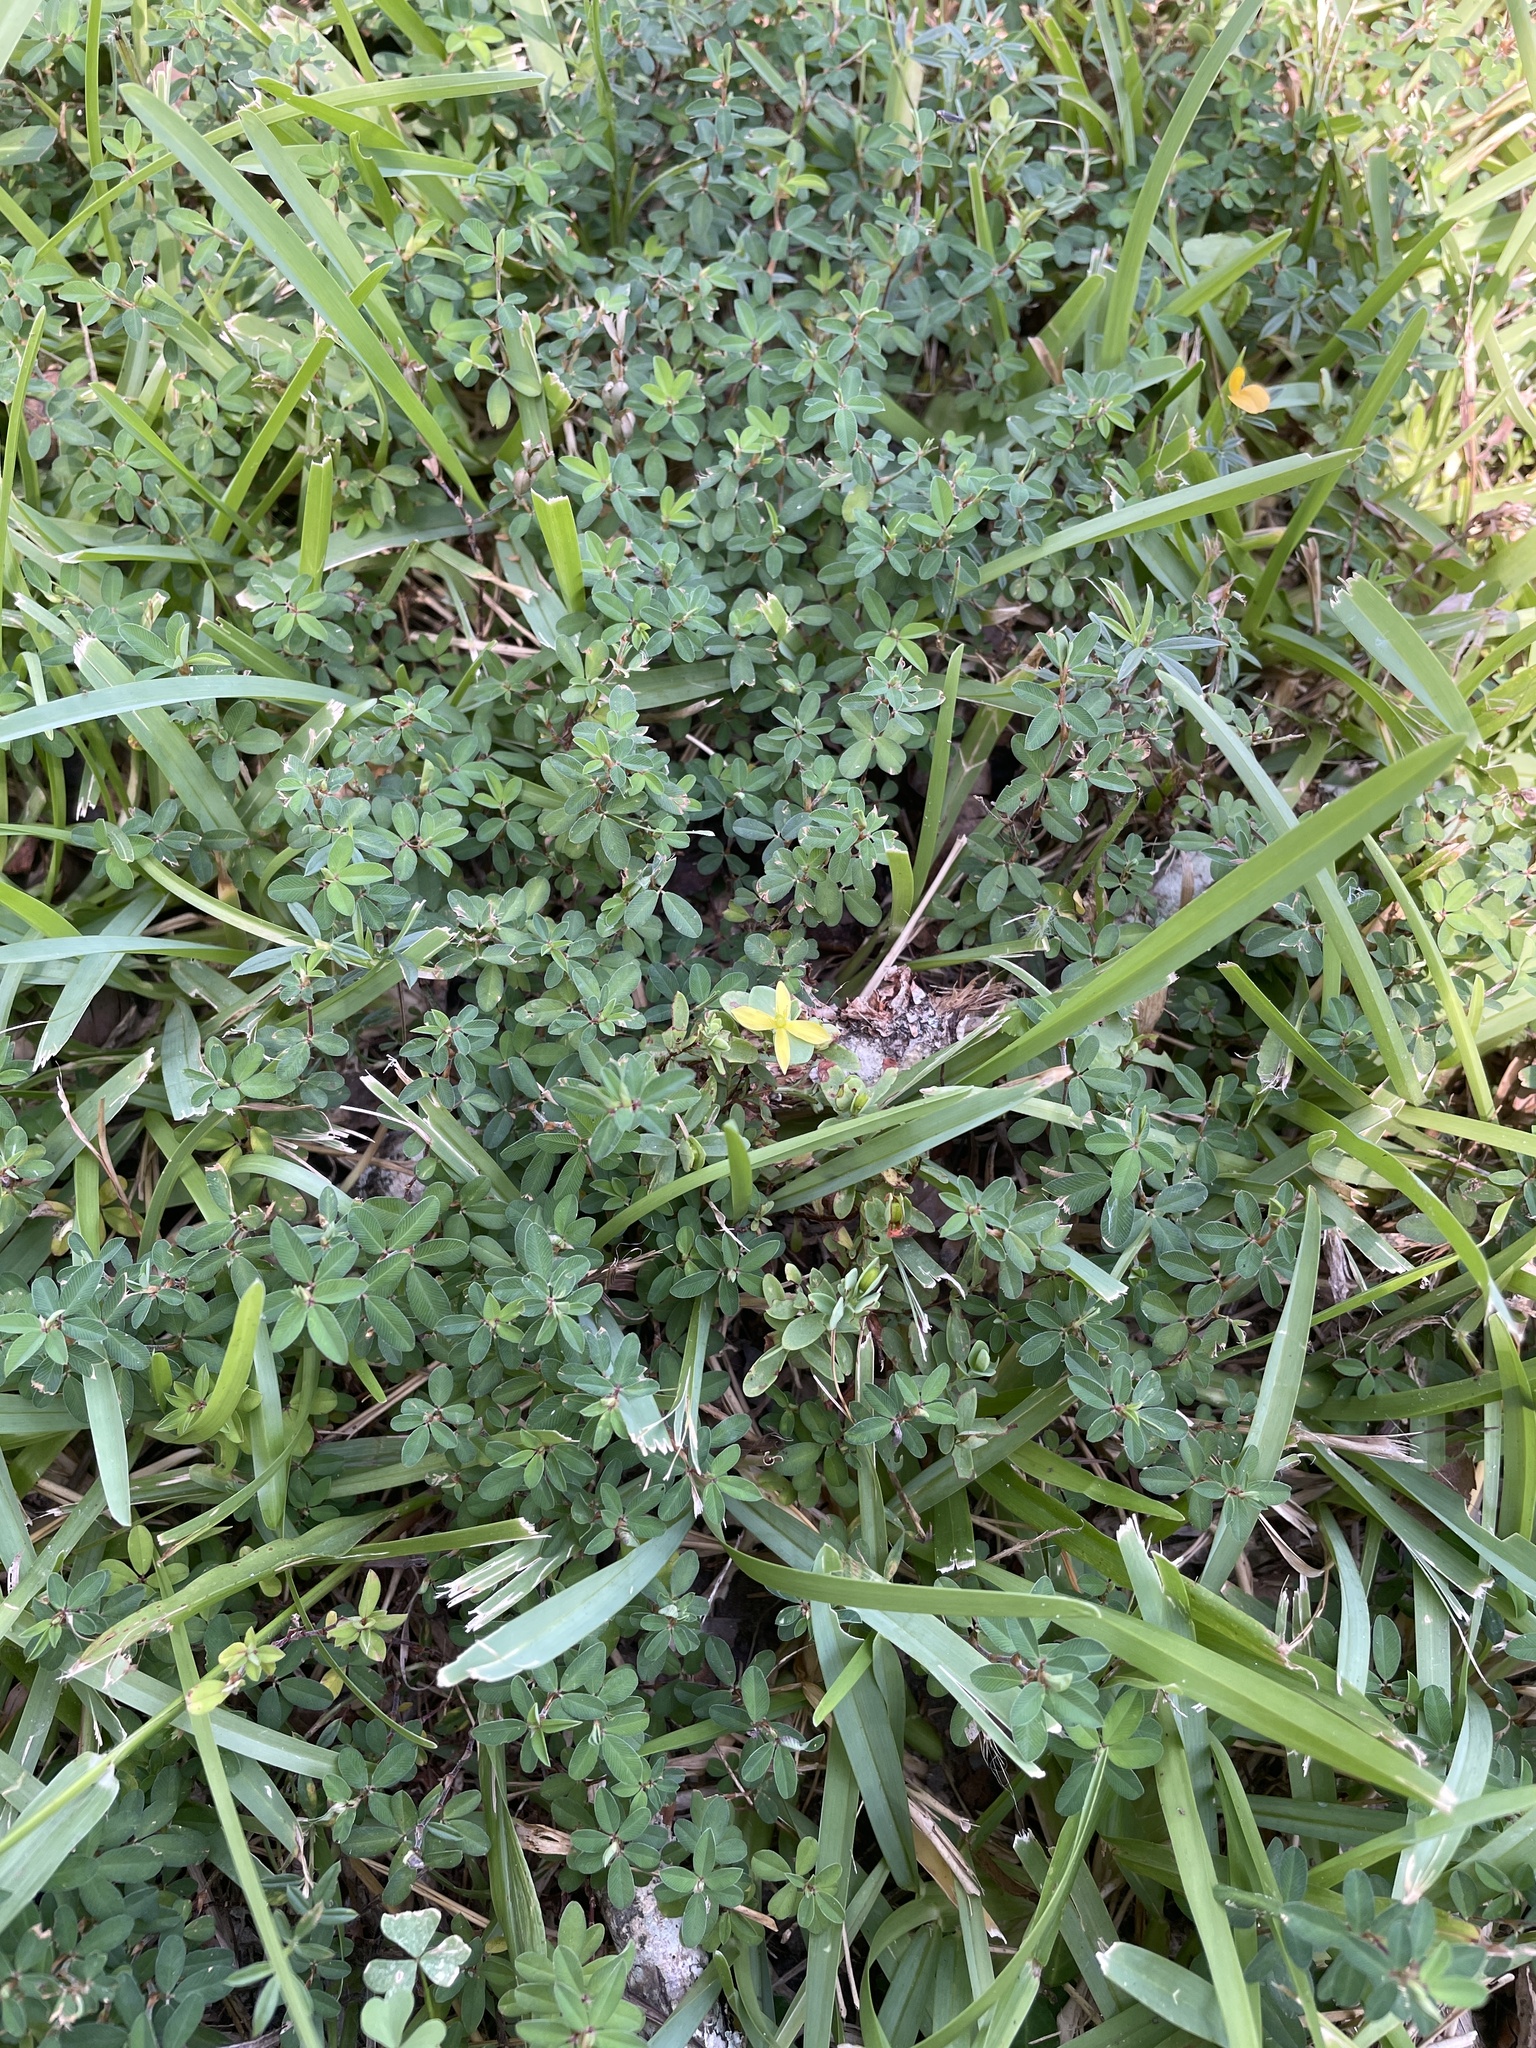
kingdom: Plantae
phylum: Tracheophyta
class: Magnoliopsida
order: Malpighiales
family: Hypericaceae
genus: Hypericum
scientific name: Hypericum hypericoides
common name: St. andrew's cross
